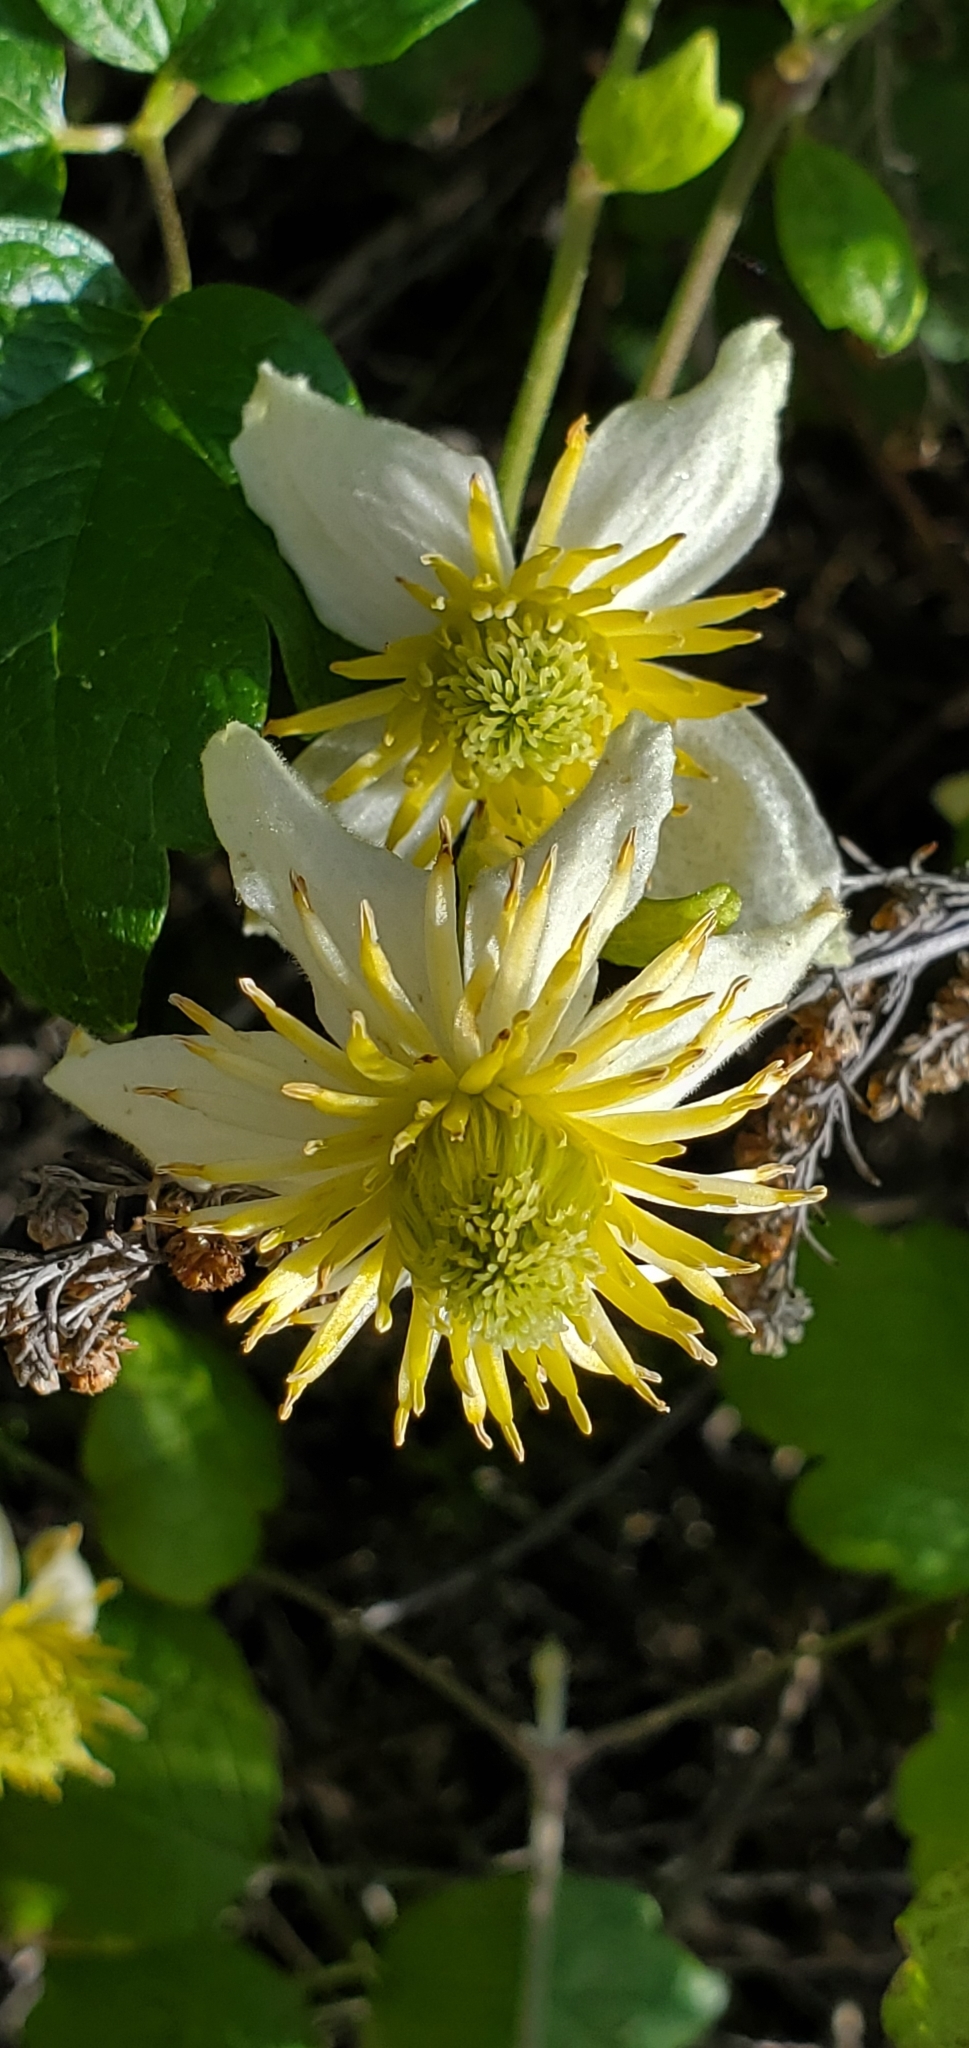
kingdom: Plantae
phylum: Tracheophyta
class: Magnoliopsida
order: Ranunculales
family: Ranunculaceae
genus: Clematis
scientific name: Clematis lasiantha
